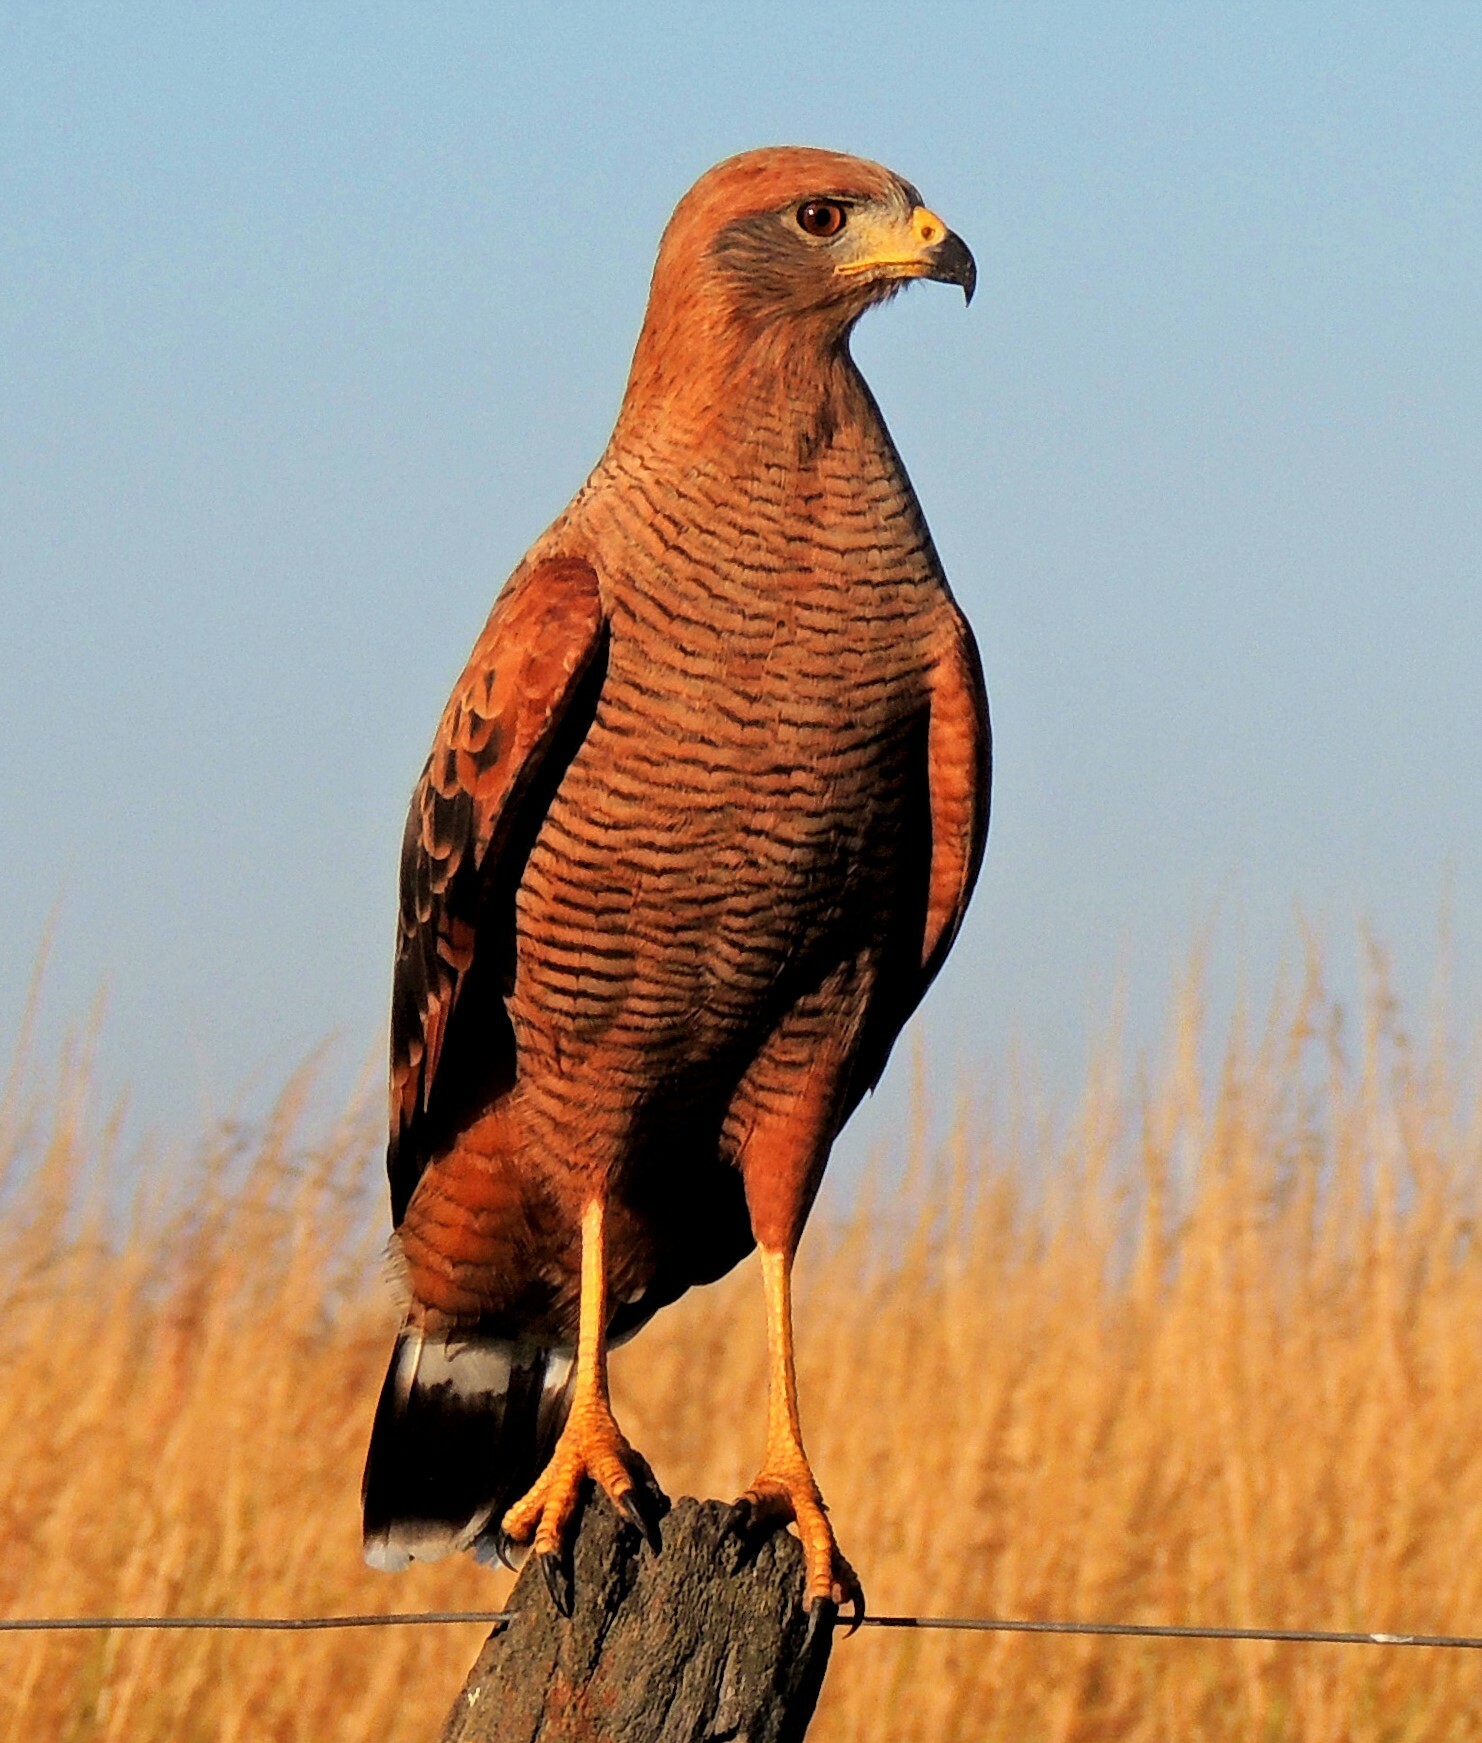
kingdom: Animalia
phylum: Chordata
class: Aves
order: Accipitriformes
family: Accipitridae
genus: Buteogallus
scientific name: Buteogallus meridionalis
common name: Savanna hawk
